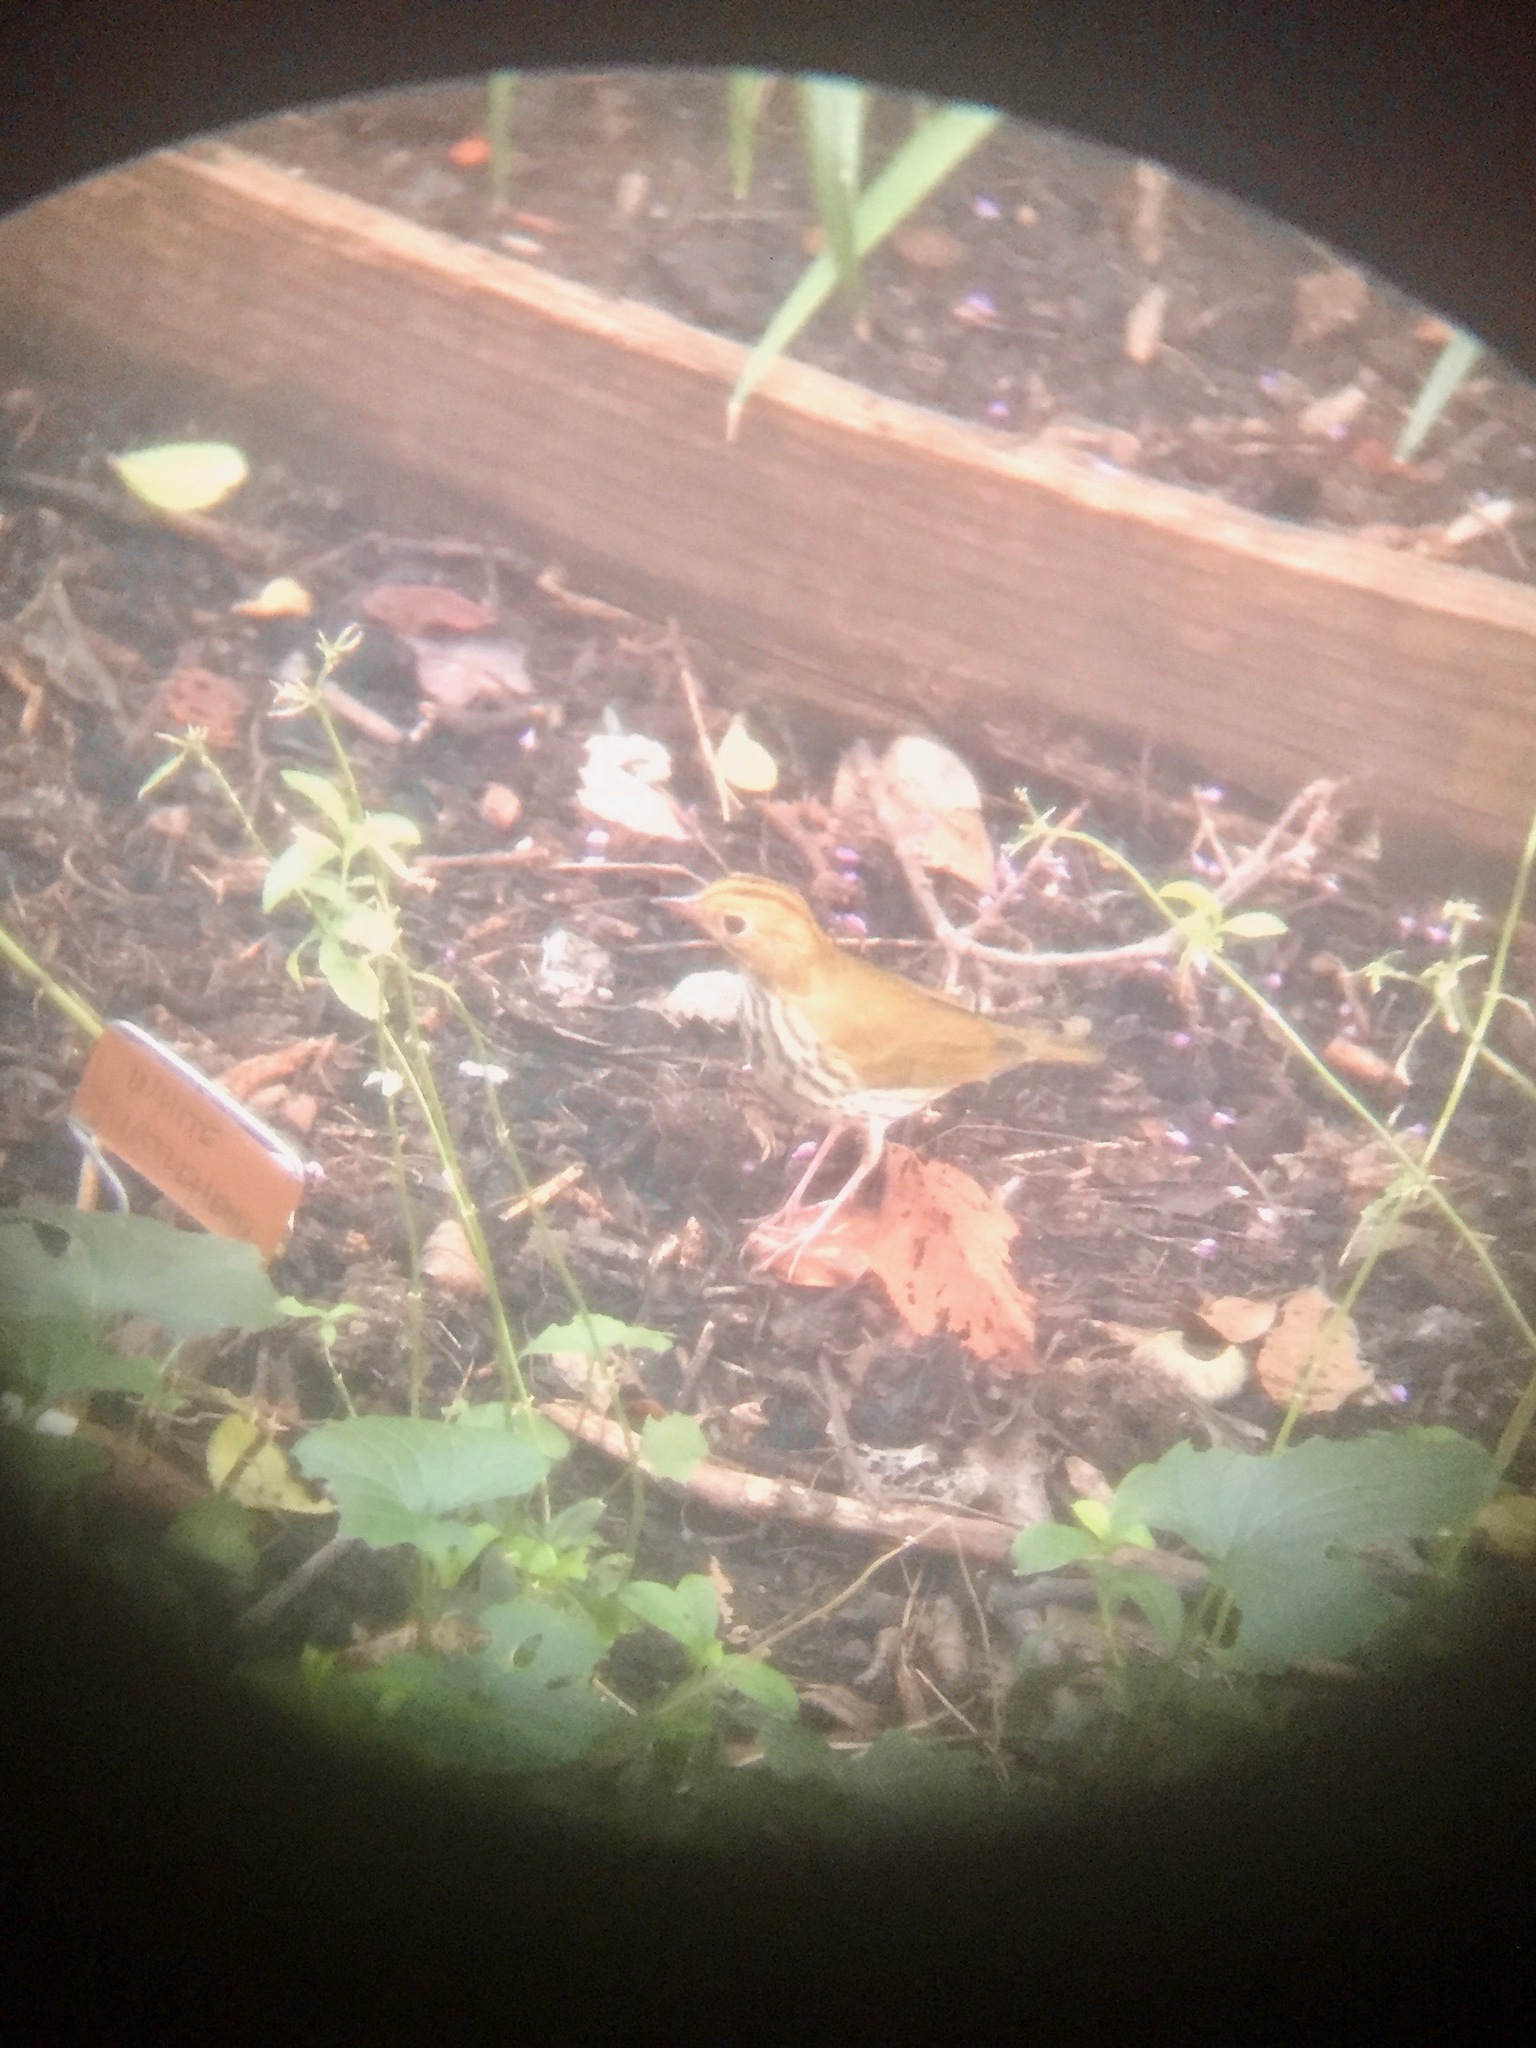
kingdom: Animalia
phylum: Chordata
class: Aves
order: Passeriformes
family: Parulidae
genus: Seiurus
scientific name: Seiurus aurocapilla
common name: Ovenbird
